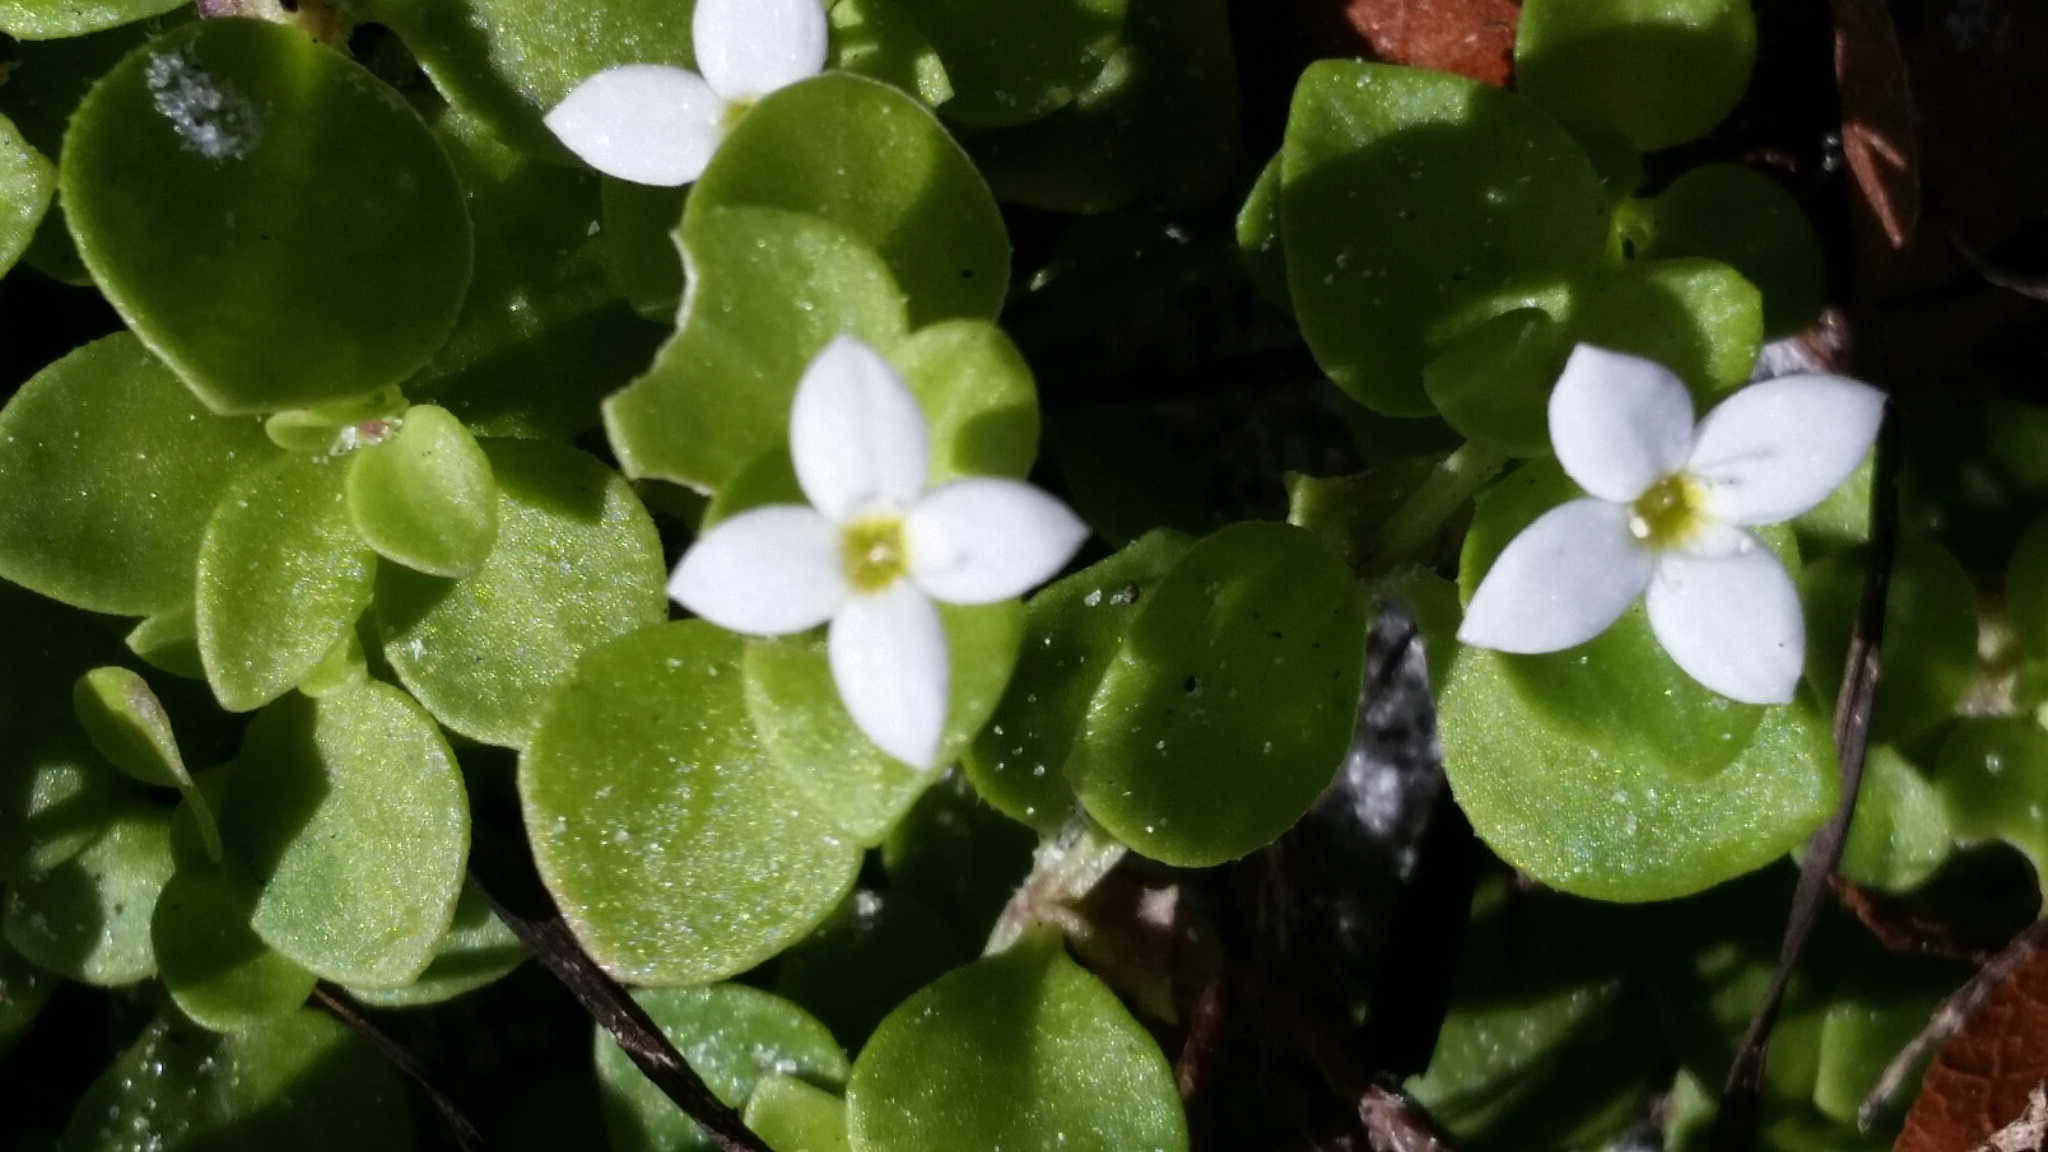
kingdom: Plantae
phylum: Tracheophyta
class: Magnoliopsida
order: Gentianales
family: Rubiaceae
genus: Houstonia
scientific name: Houstonia procumbens
